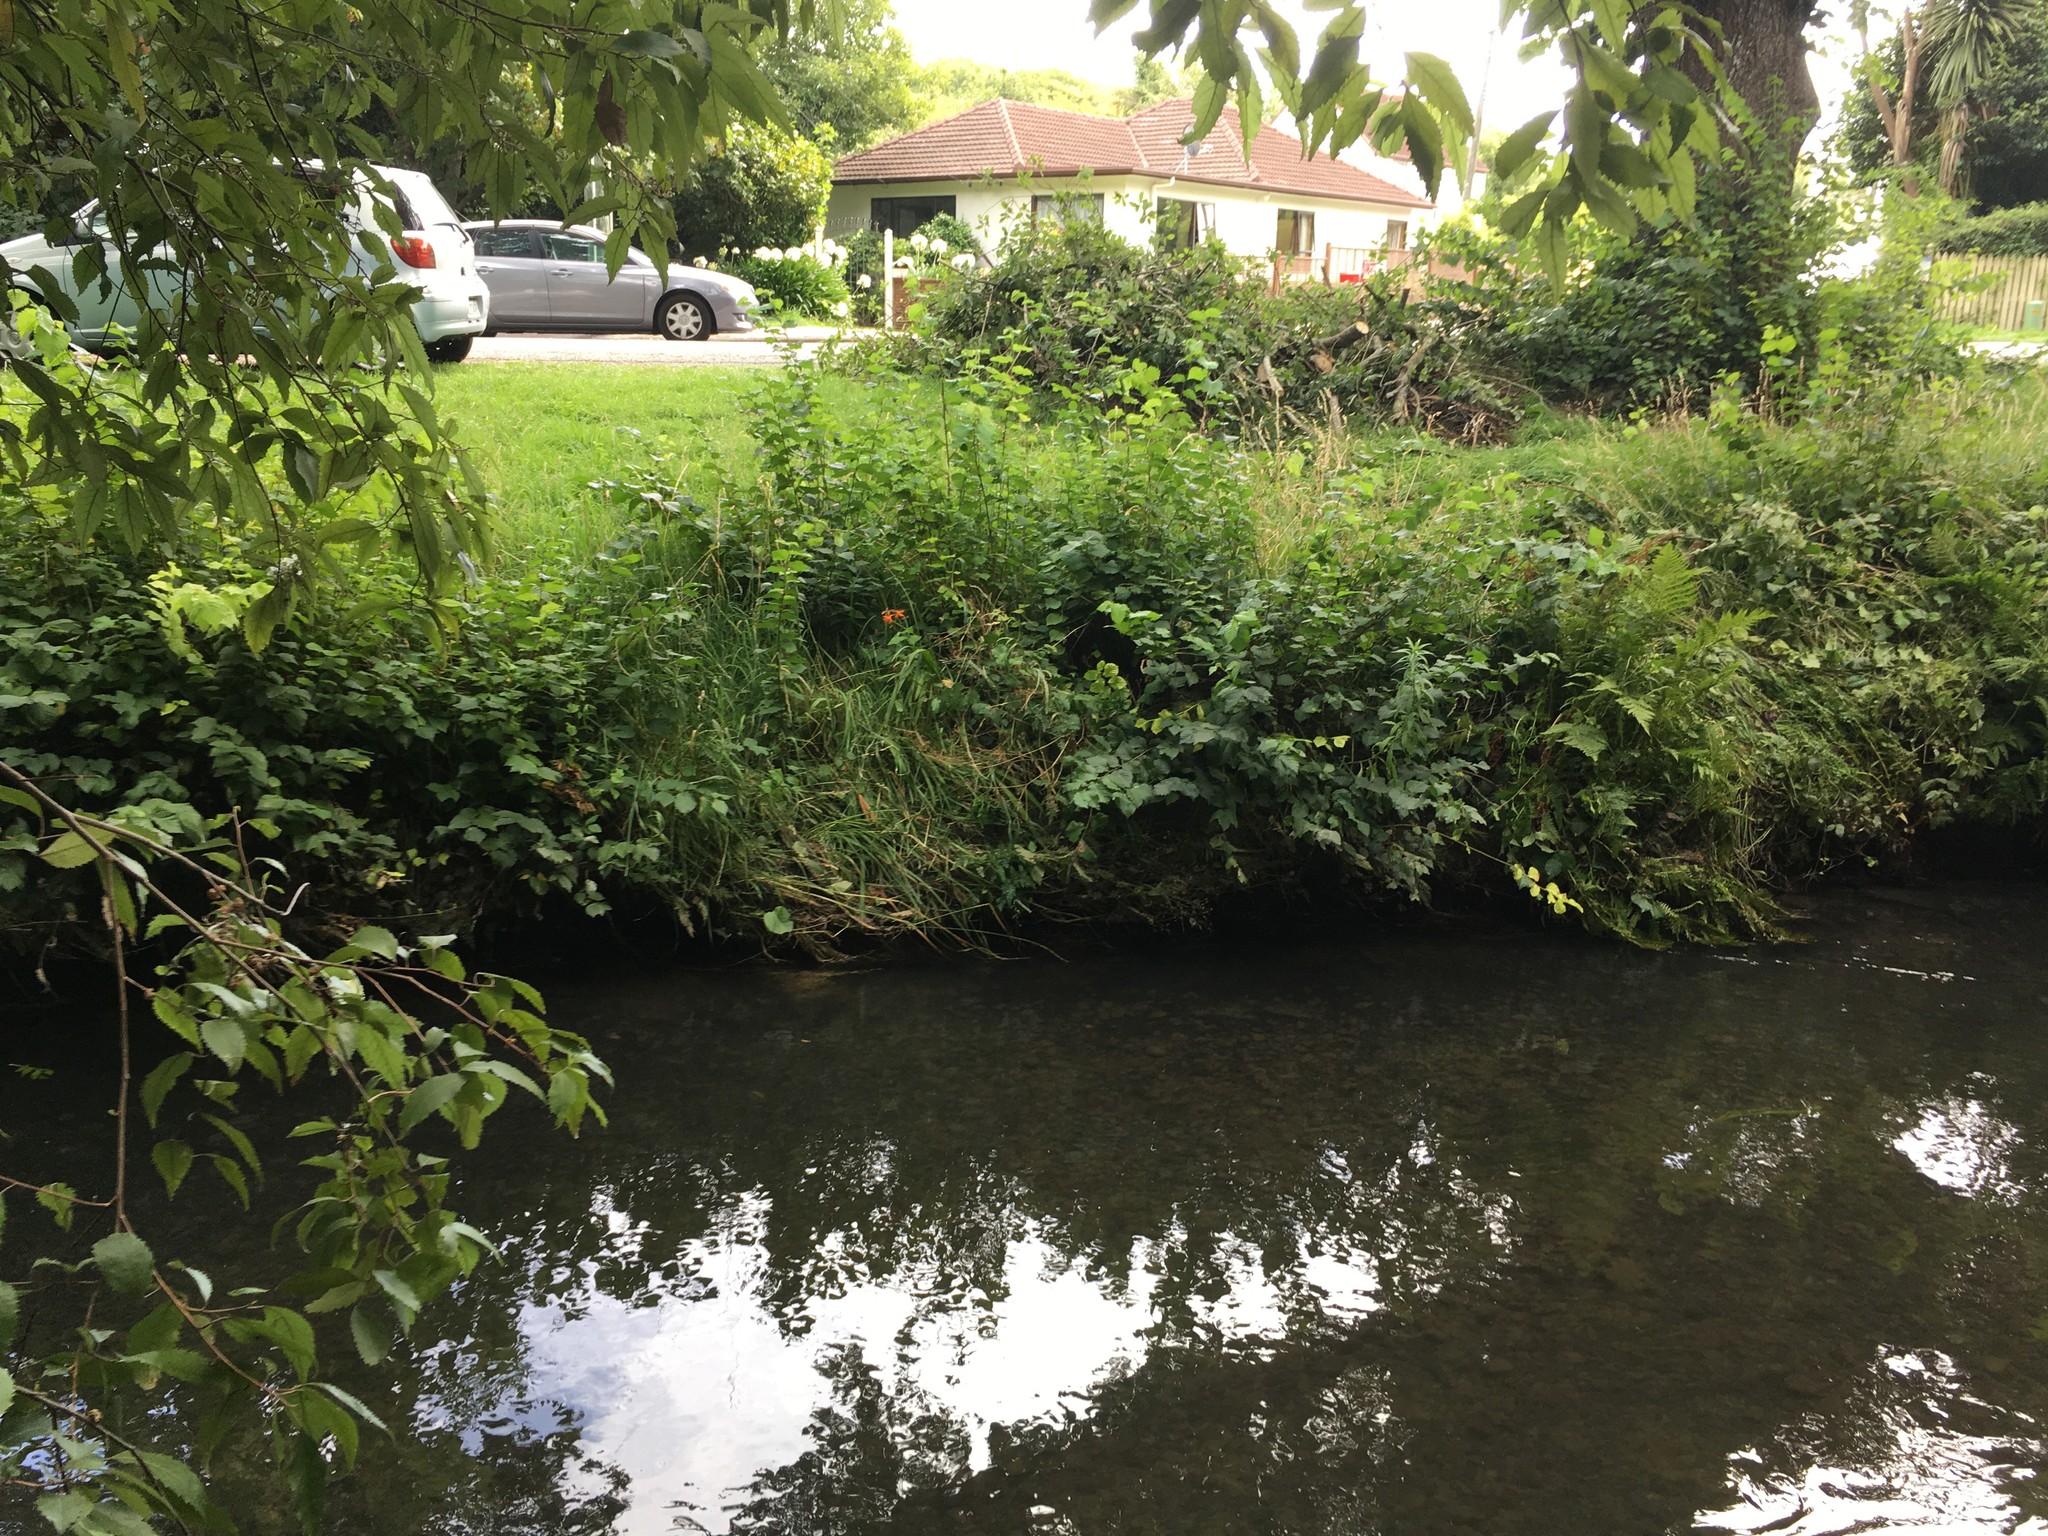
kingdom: Plantae
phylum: Tracheophyta
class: Liliopsida
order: Asparagales
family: Iridaceae
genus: Crocosmia
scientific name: Crocosmia crocosmiiflora
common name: Montbretia
